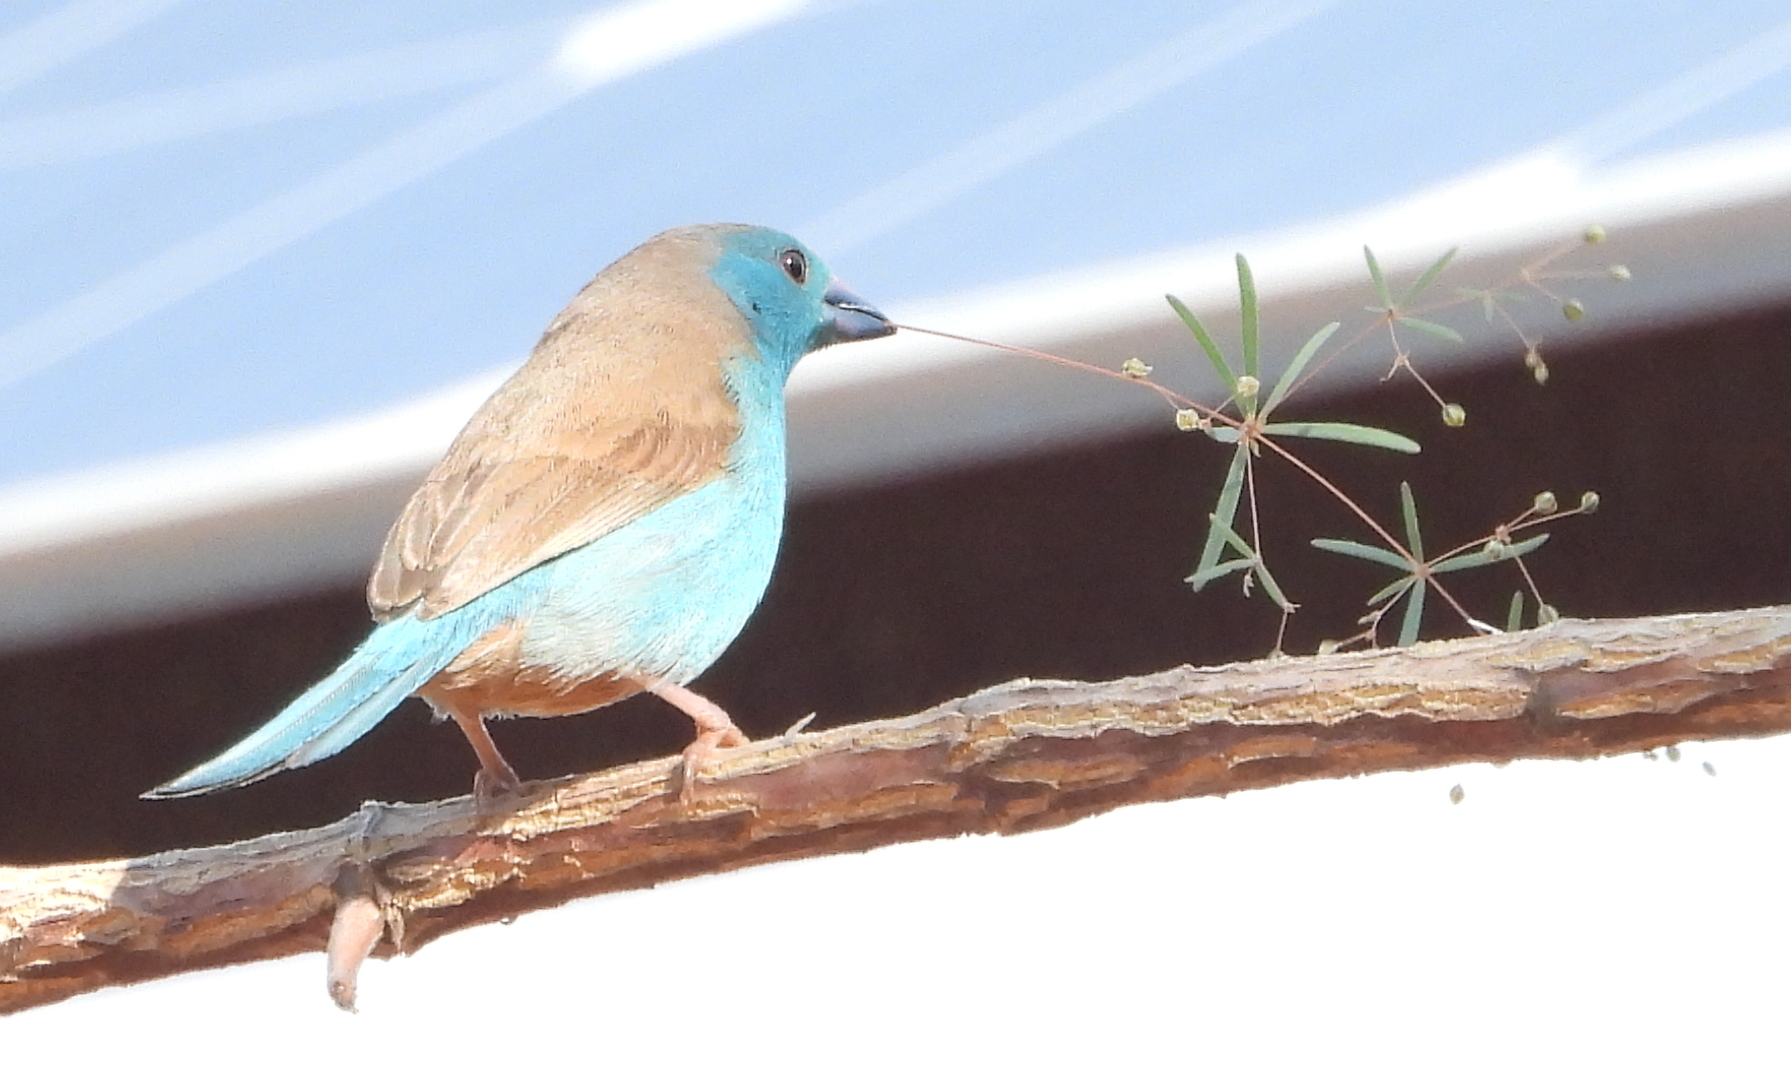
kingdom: Animalia
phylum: Chordata
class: Aves
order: Passeriformes
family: Estrildidae
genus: Uraeginthus
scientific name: Uraeginthus angolensis
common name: Blue waxbill
